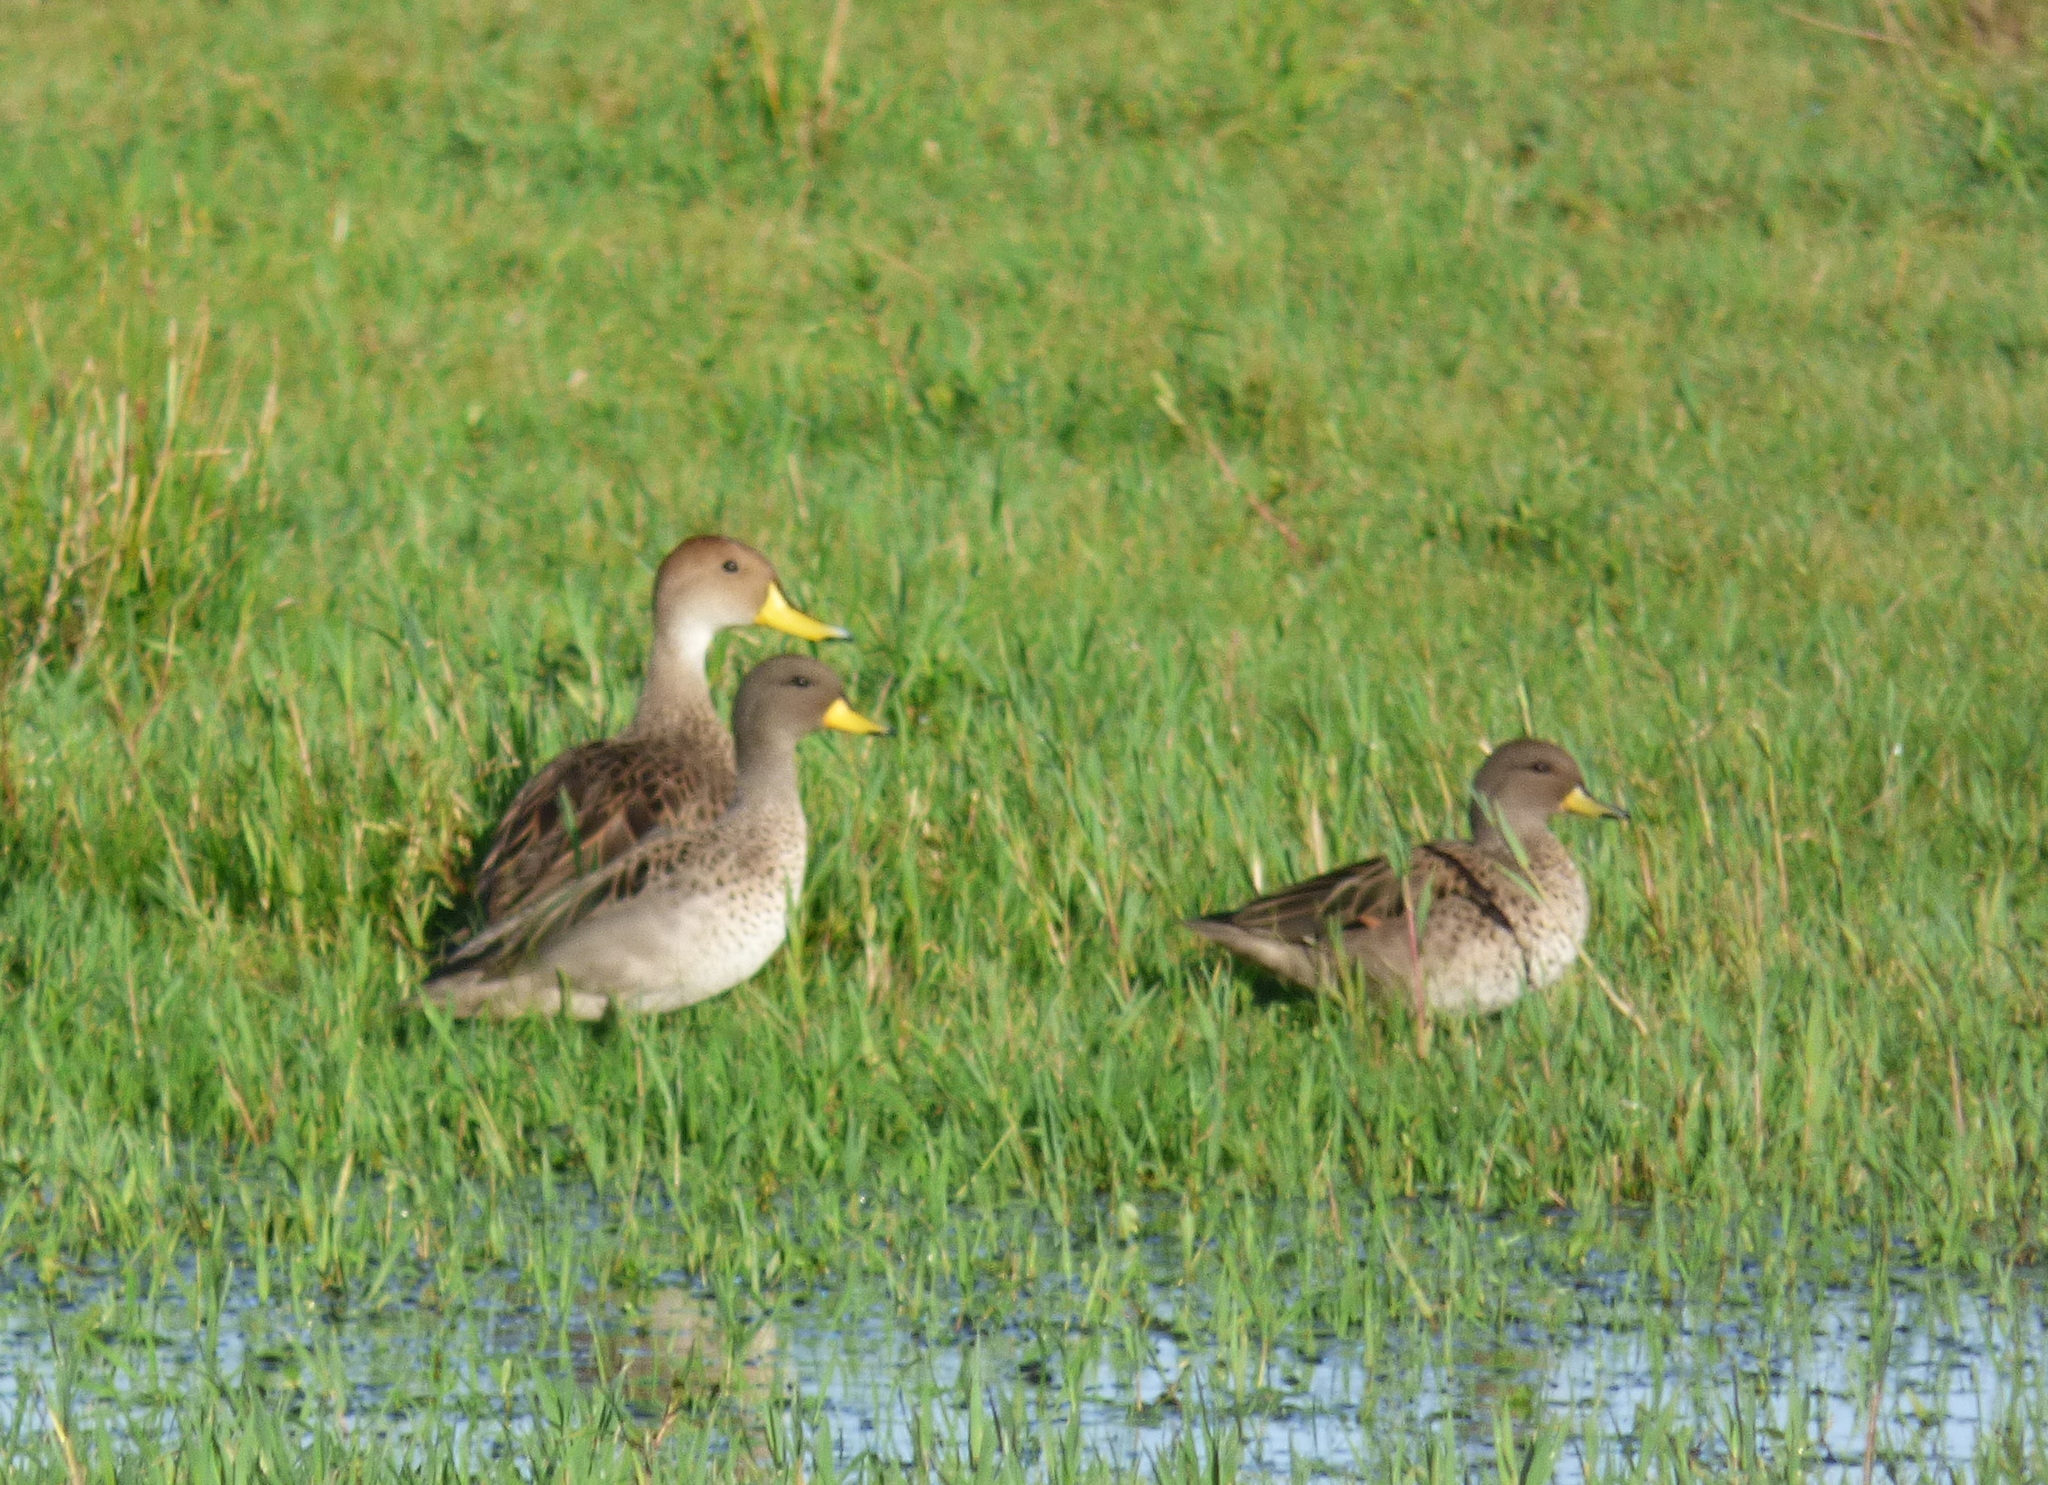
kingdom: Animalia
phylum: Chordata
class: Aves
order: Anseriformes
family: Anatidae
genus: Anas
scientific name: Anas flavirostris
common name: Yellow-billed teal
